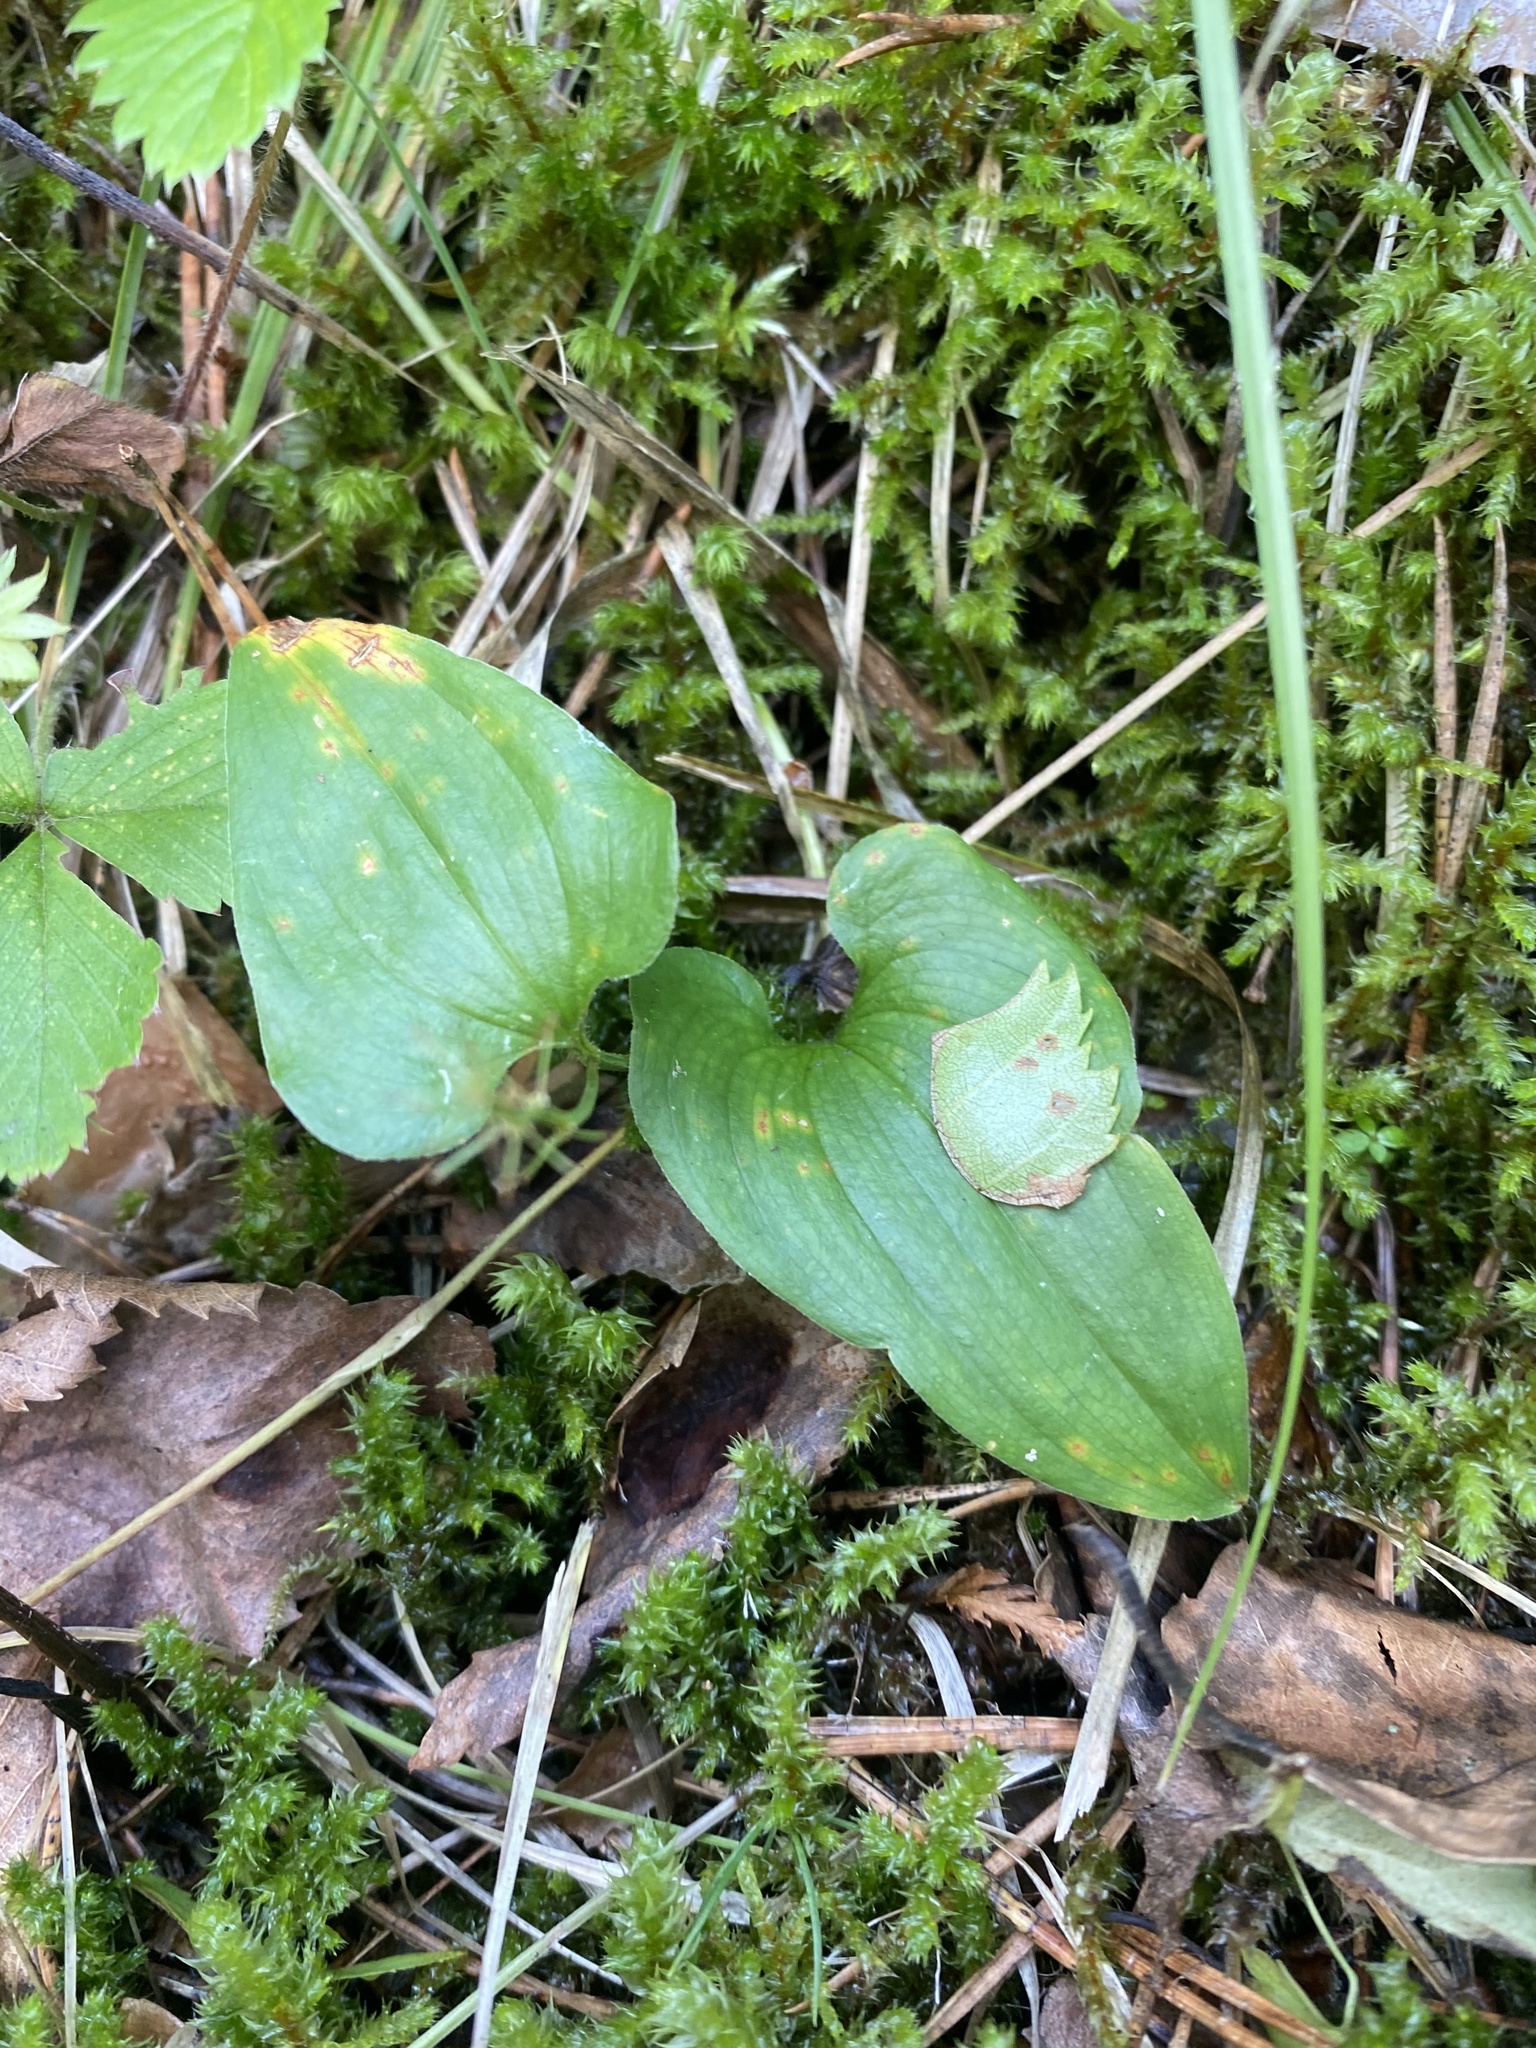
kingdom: Plantae
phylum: Tracheophyta
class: Liliopsida
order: Asparagales
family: Asparagaceae
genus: Maianthemum
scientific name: Maianthemum bifolium
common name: May lily
